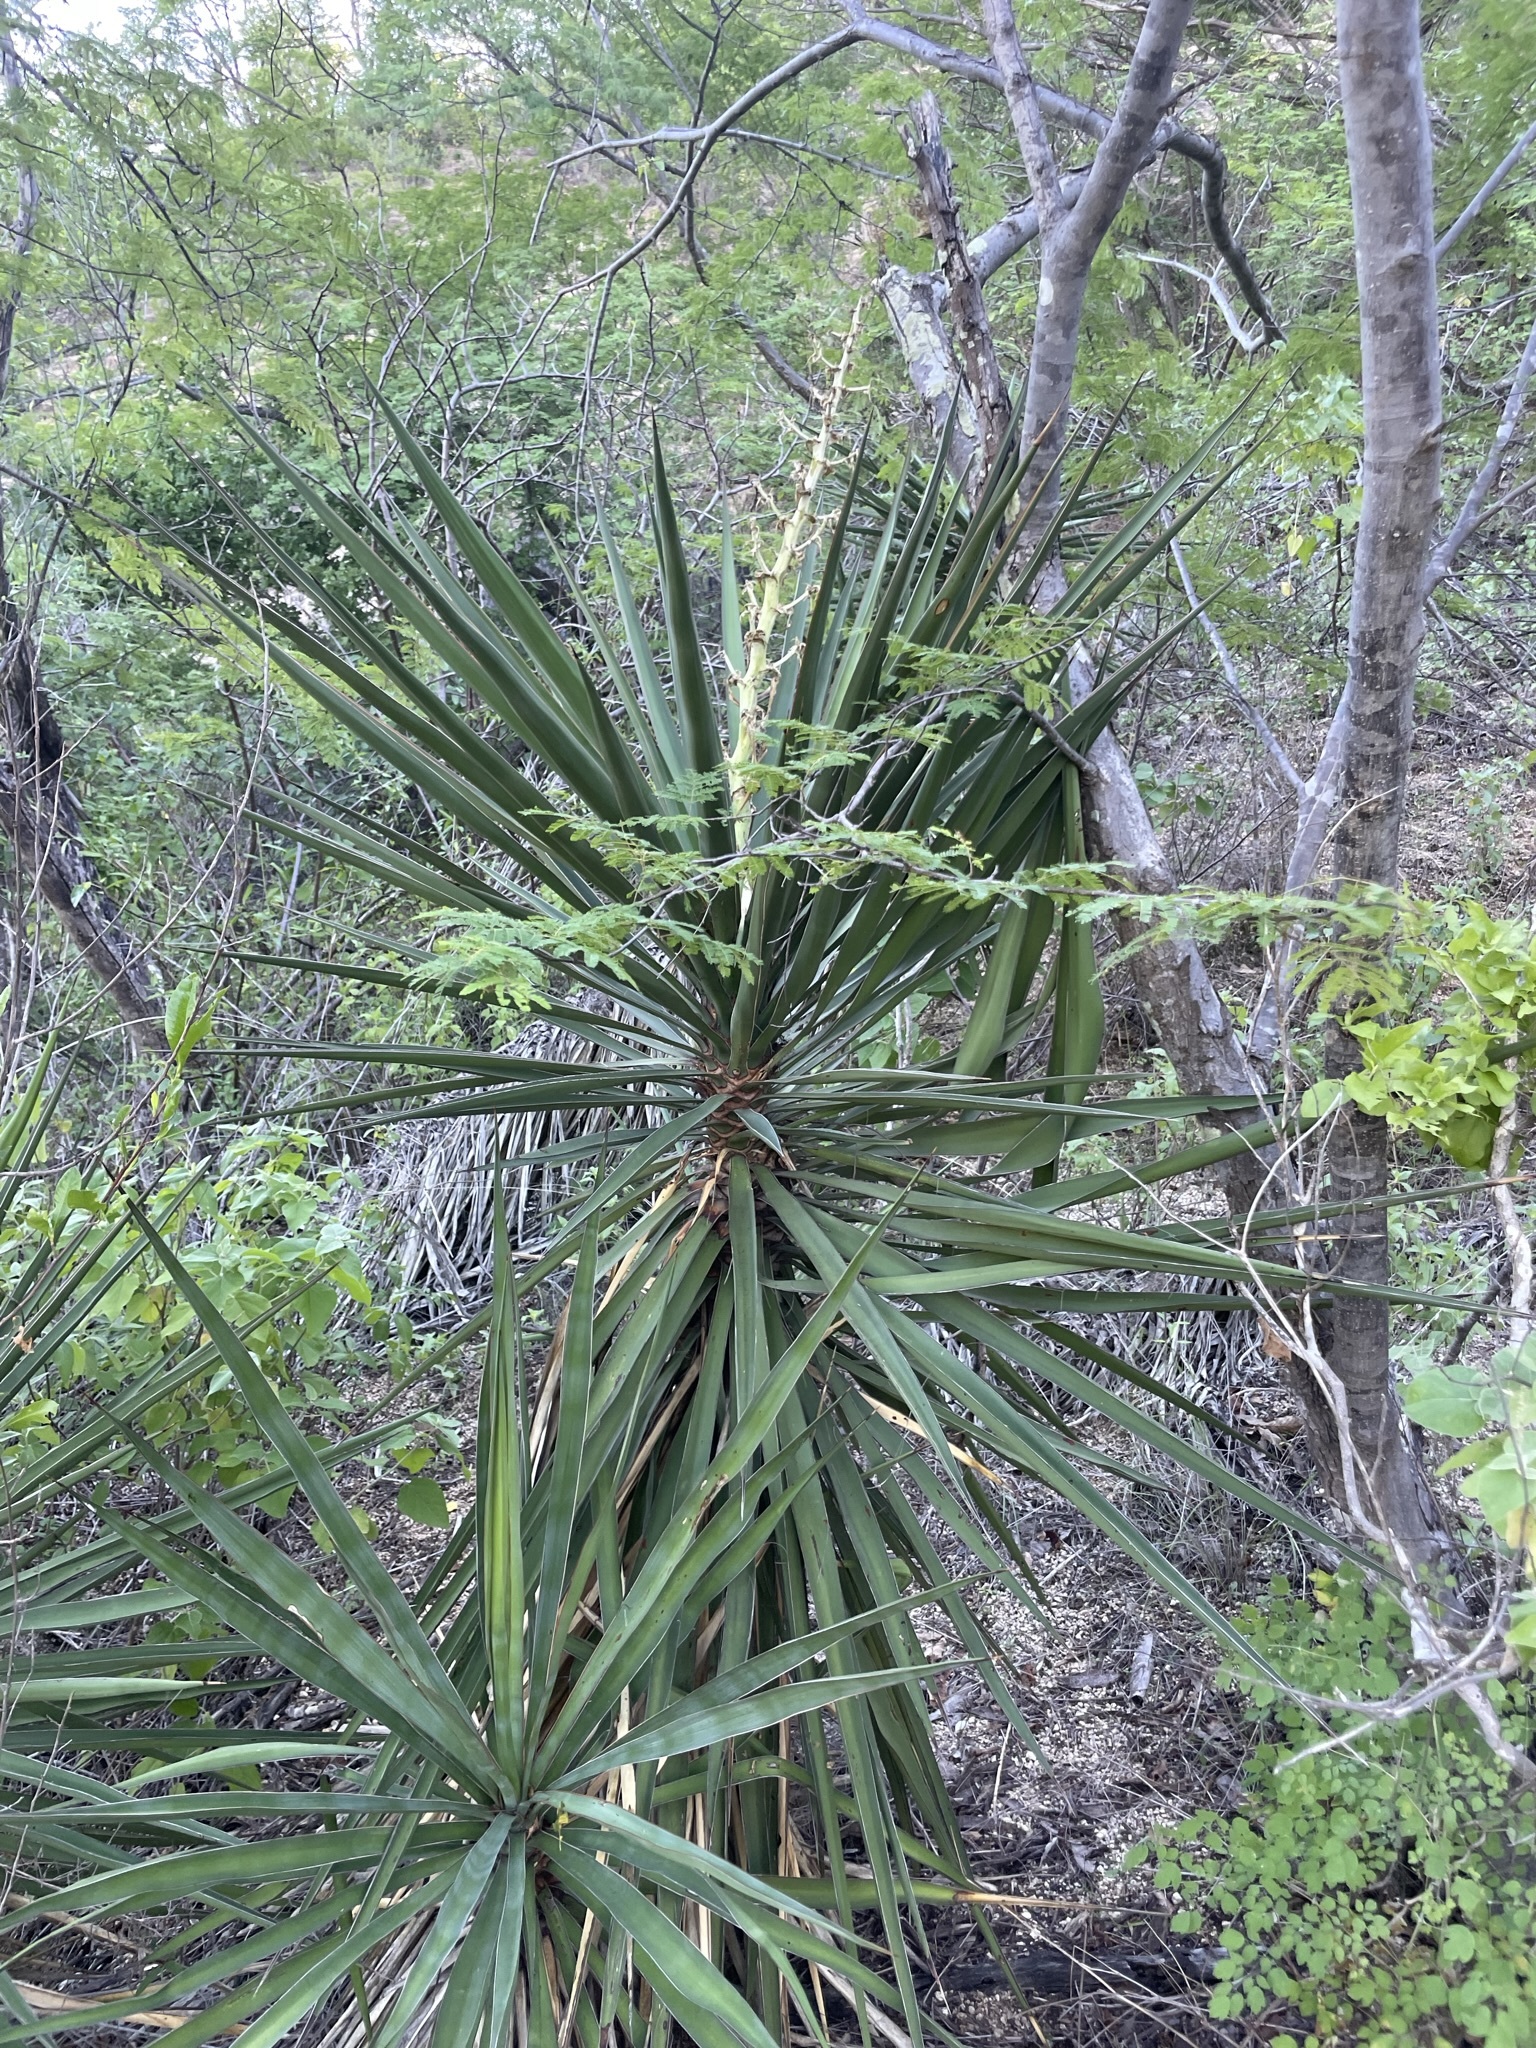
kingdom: Plantae
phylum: Tracheophyta
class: Liliopsida
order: Asparagales
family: Asparagaceae
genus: Yucca
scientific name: Yucca capensis
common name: Cape region yucca
